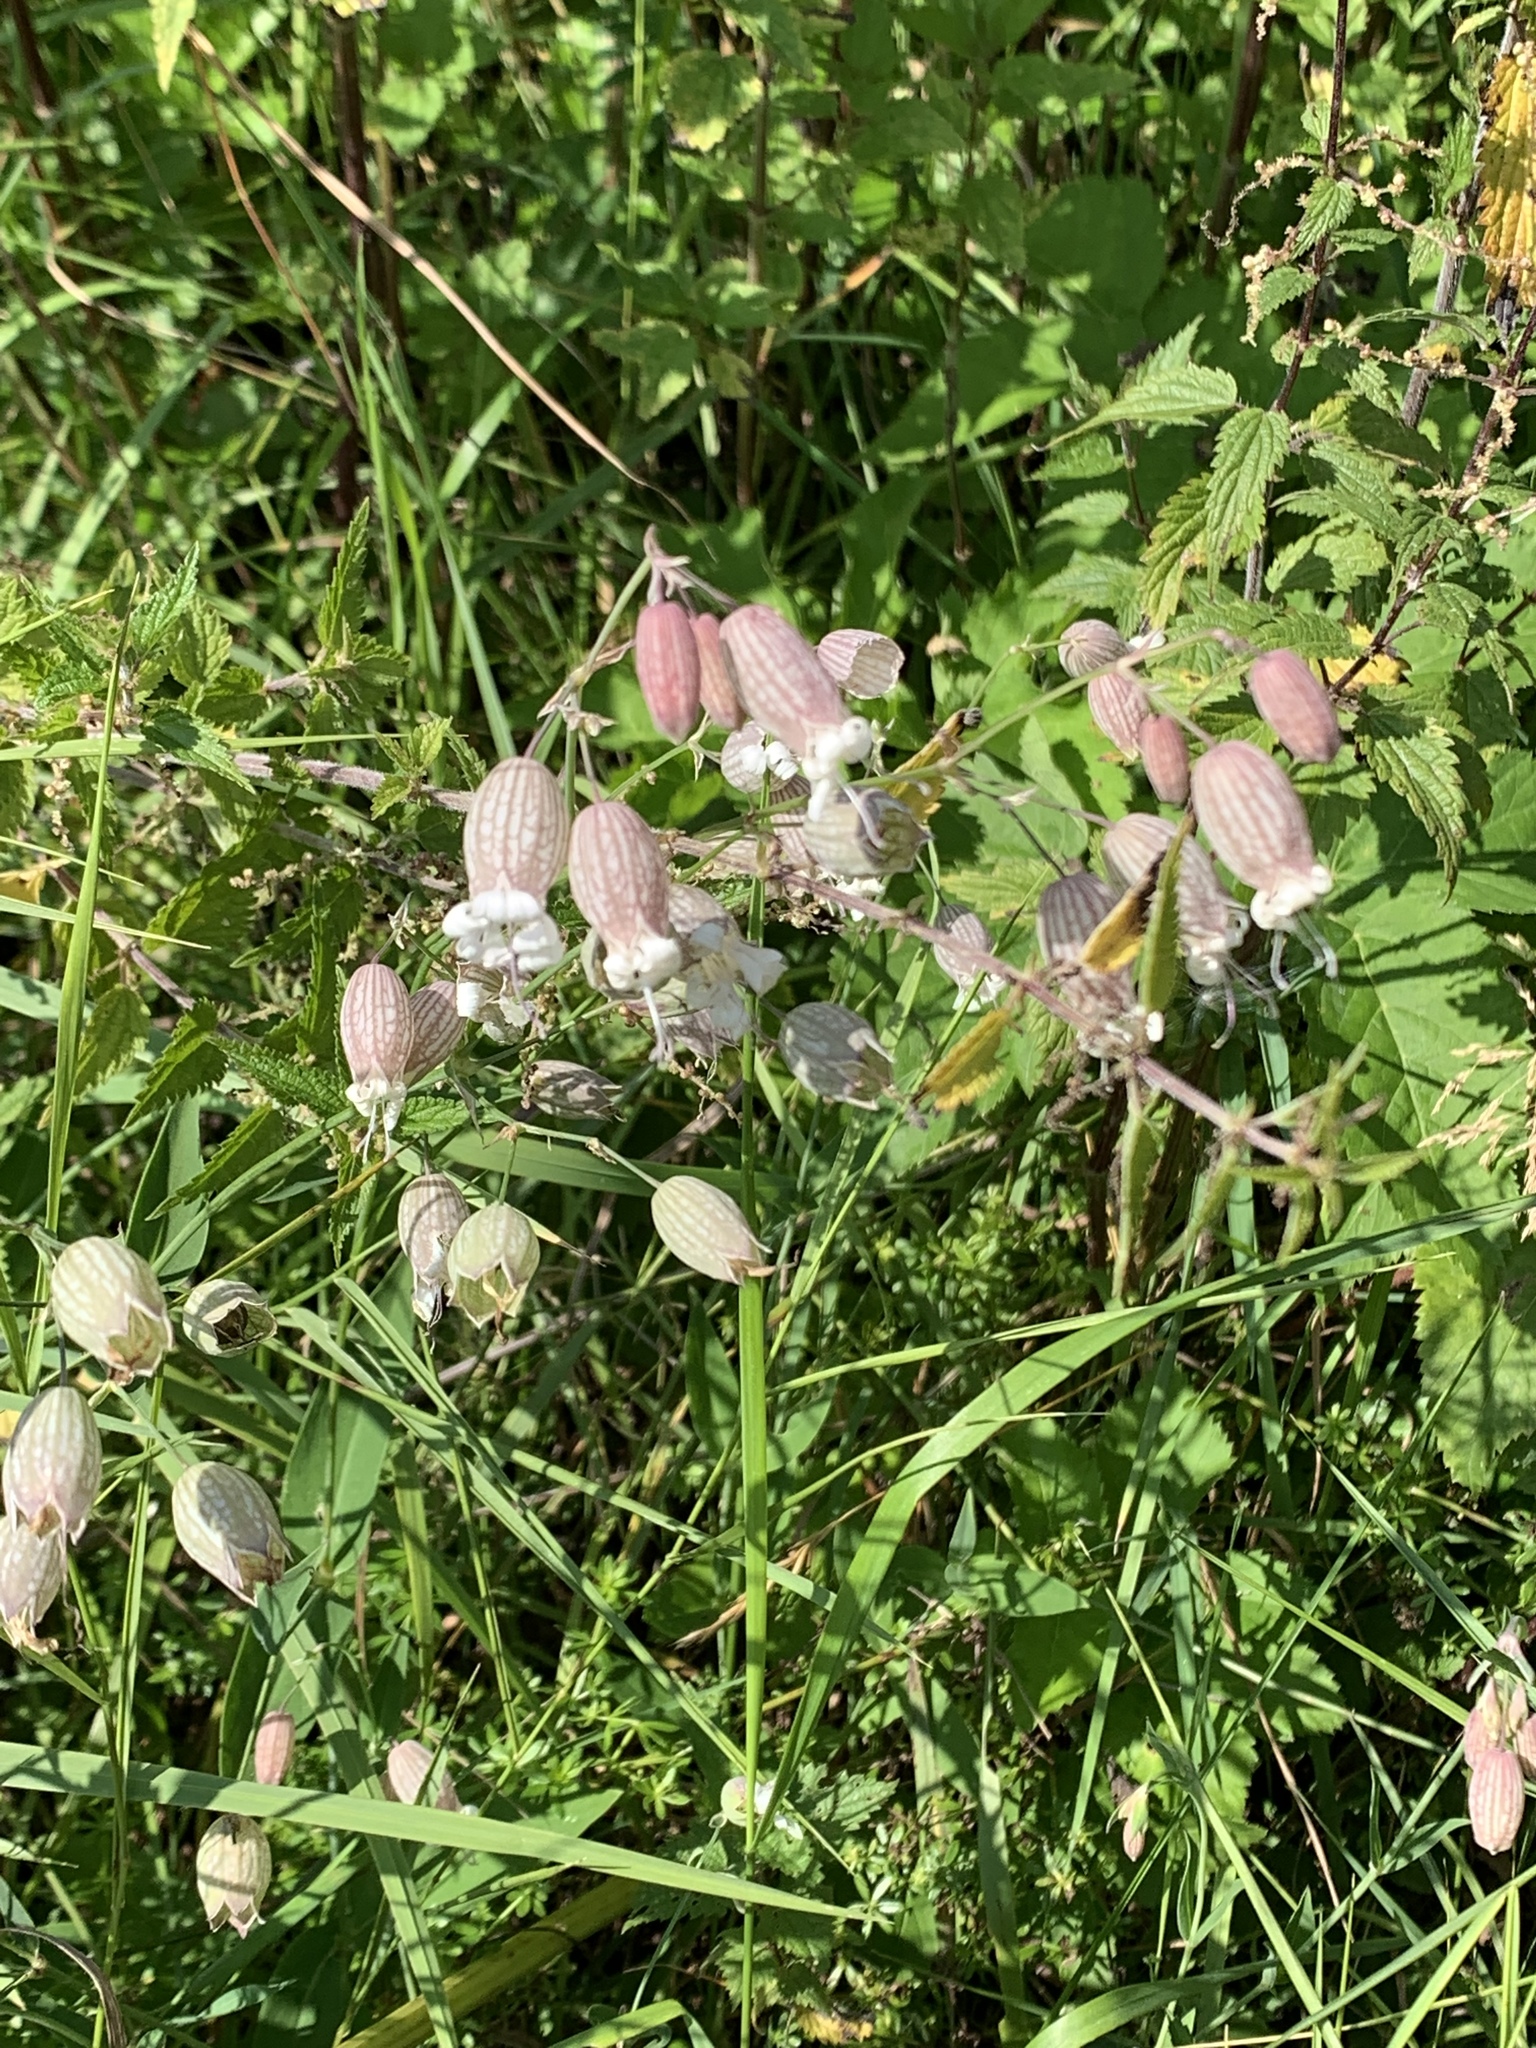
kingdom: Plantae
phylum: Tracheophyta
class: Magnoliopsida
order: Caryophyllales
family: Caryophyllaceae
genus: Silene
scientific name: Silene vulgaris
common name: Bladder campion
